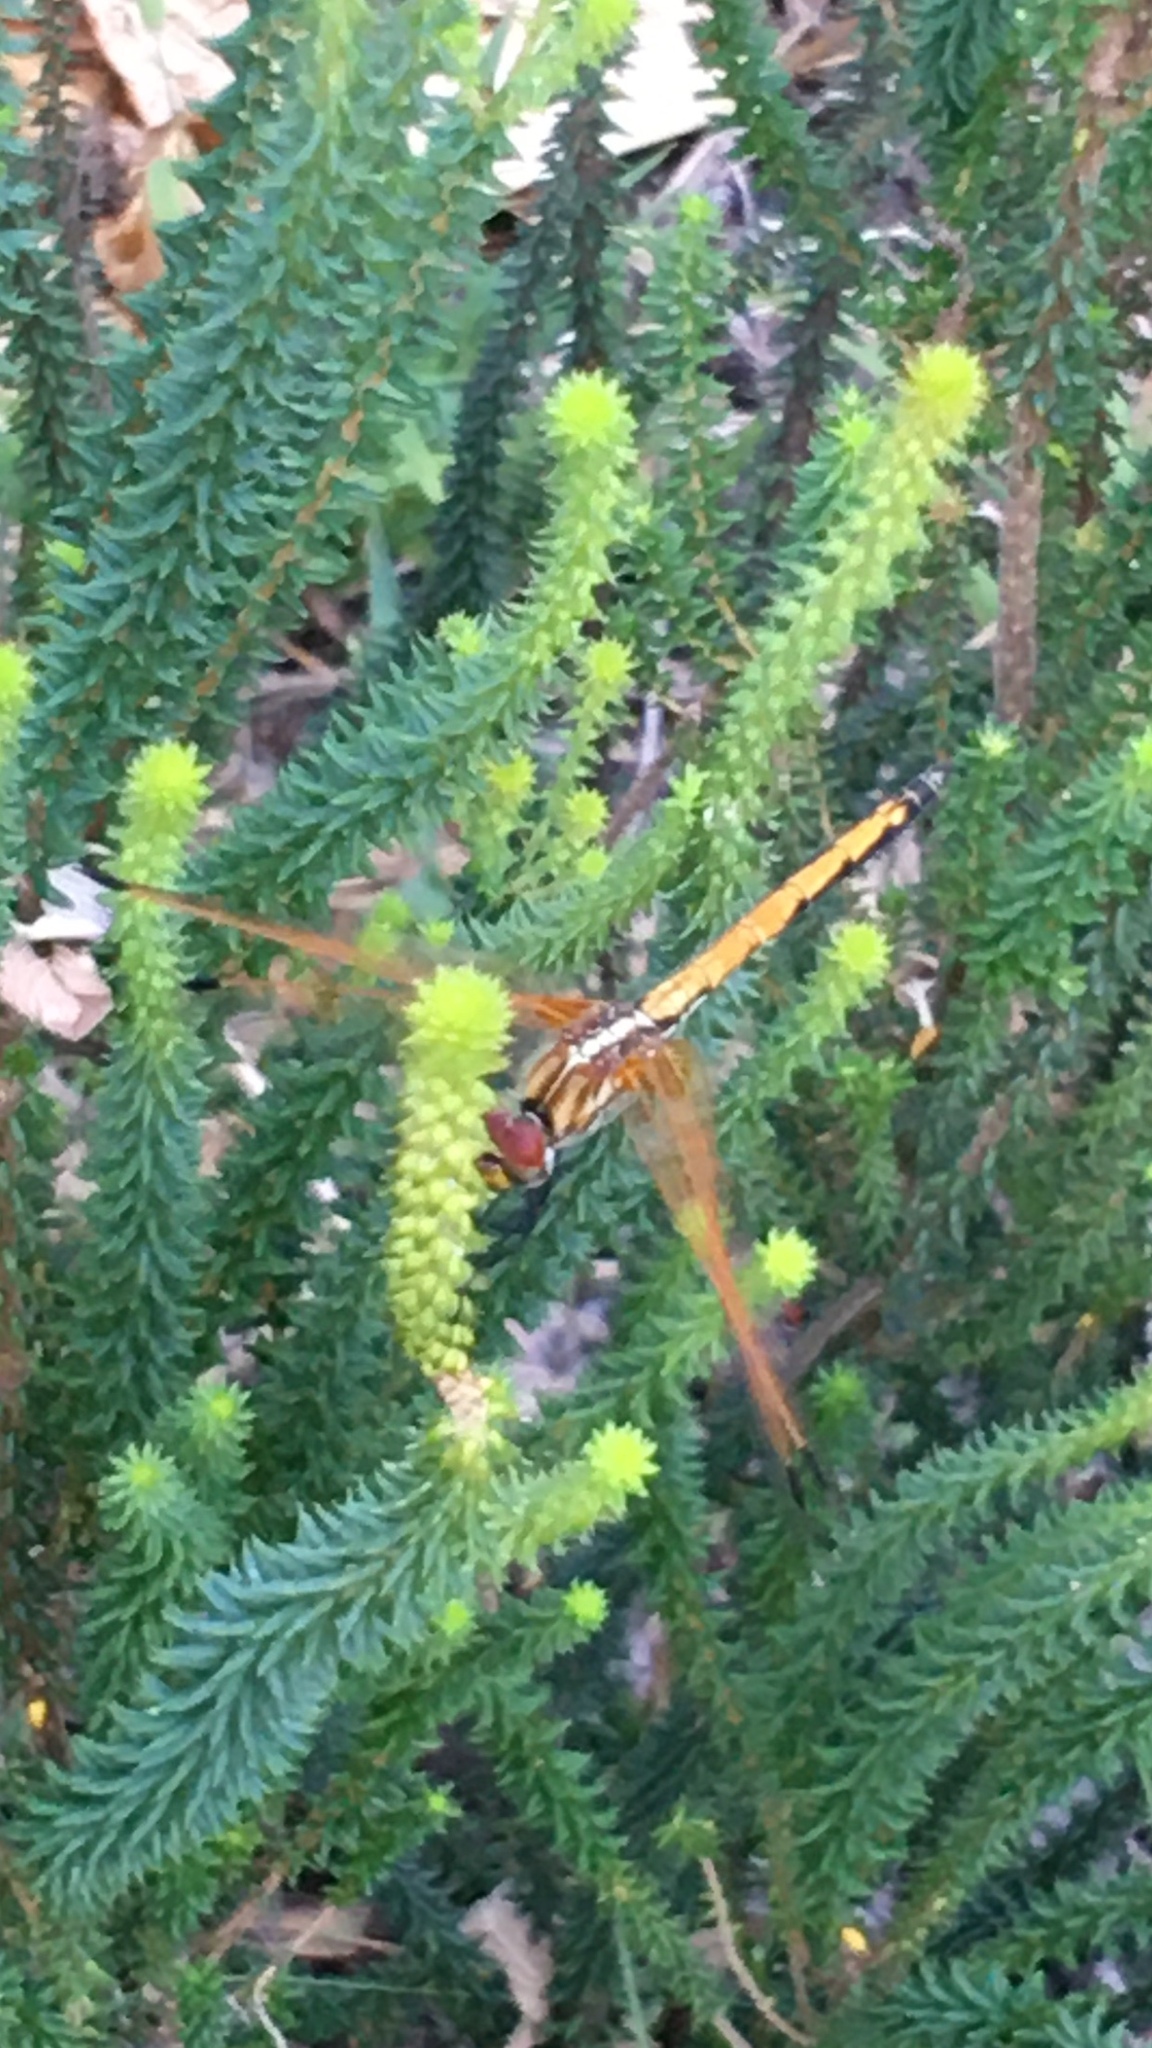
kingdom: Animalia
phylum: Arthropoda
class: Insecta
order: Odonata
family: Libellulidae
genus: Trithemis
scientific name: Trithemis arteriosa
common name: Red-veined dropwing
